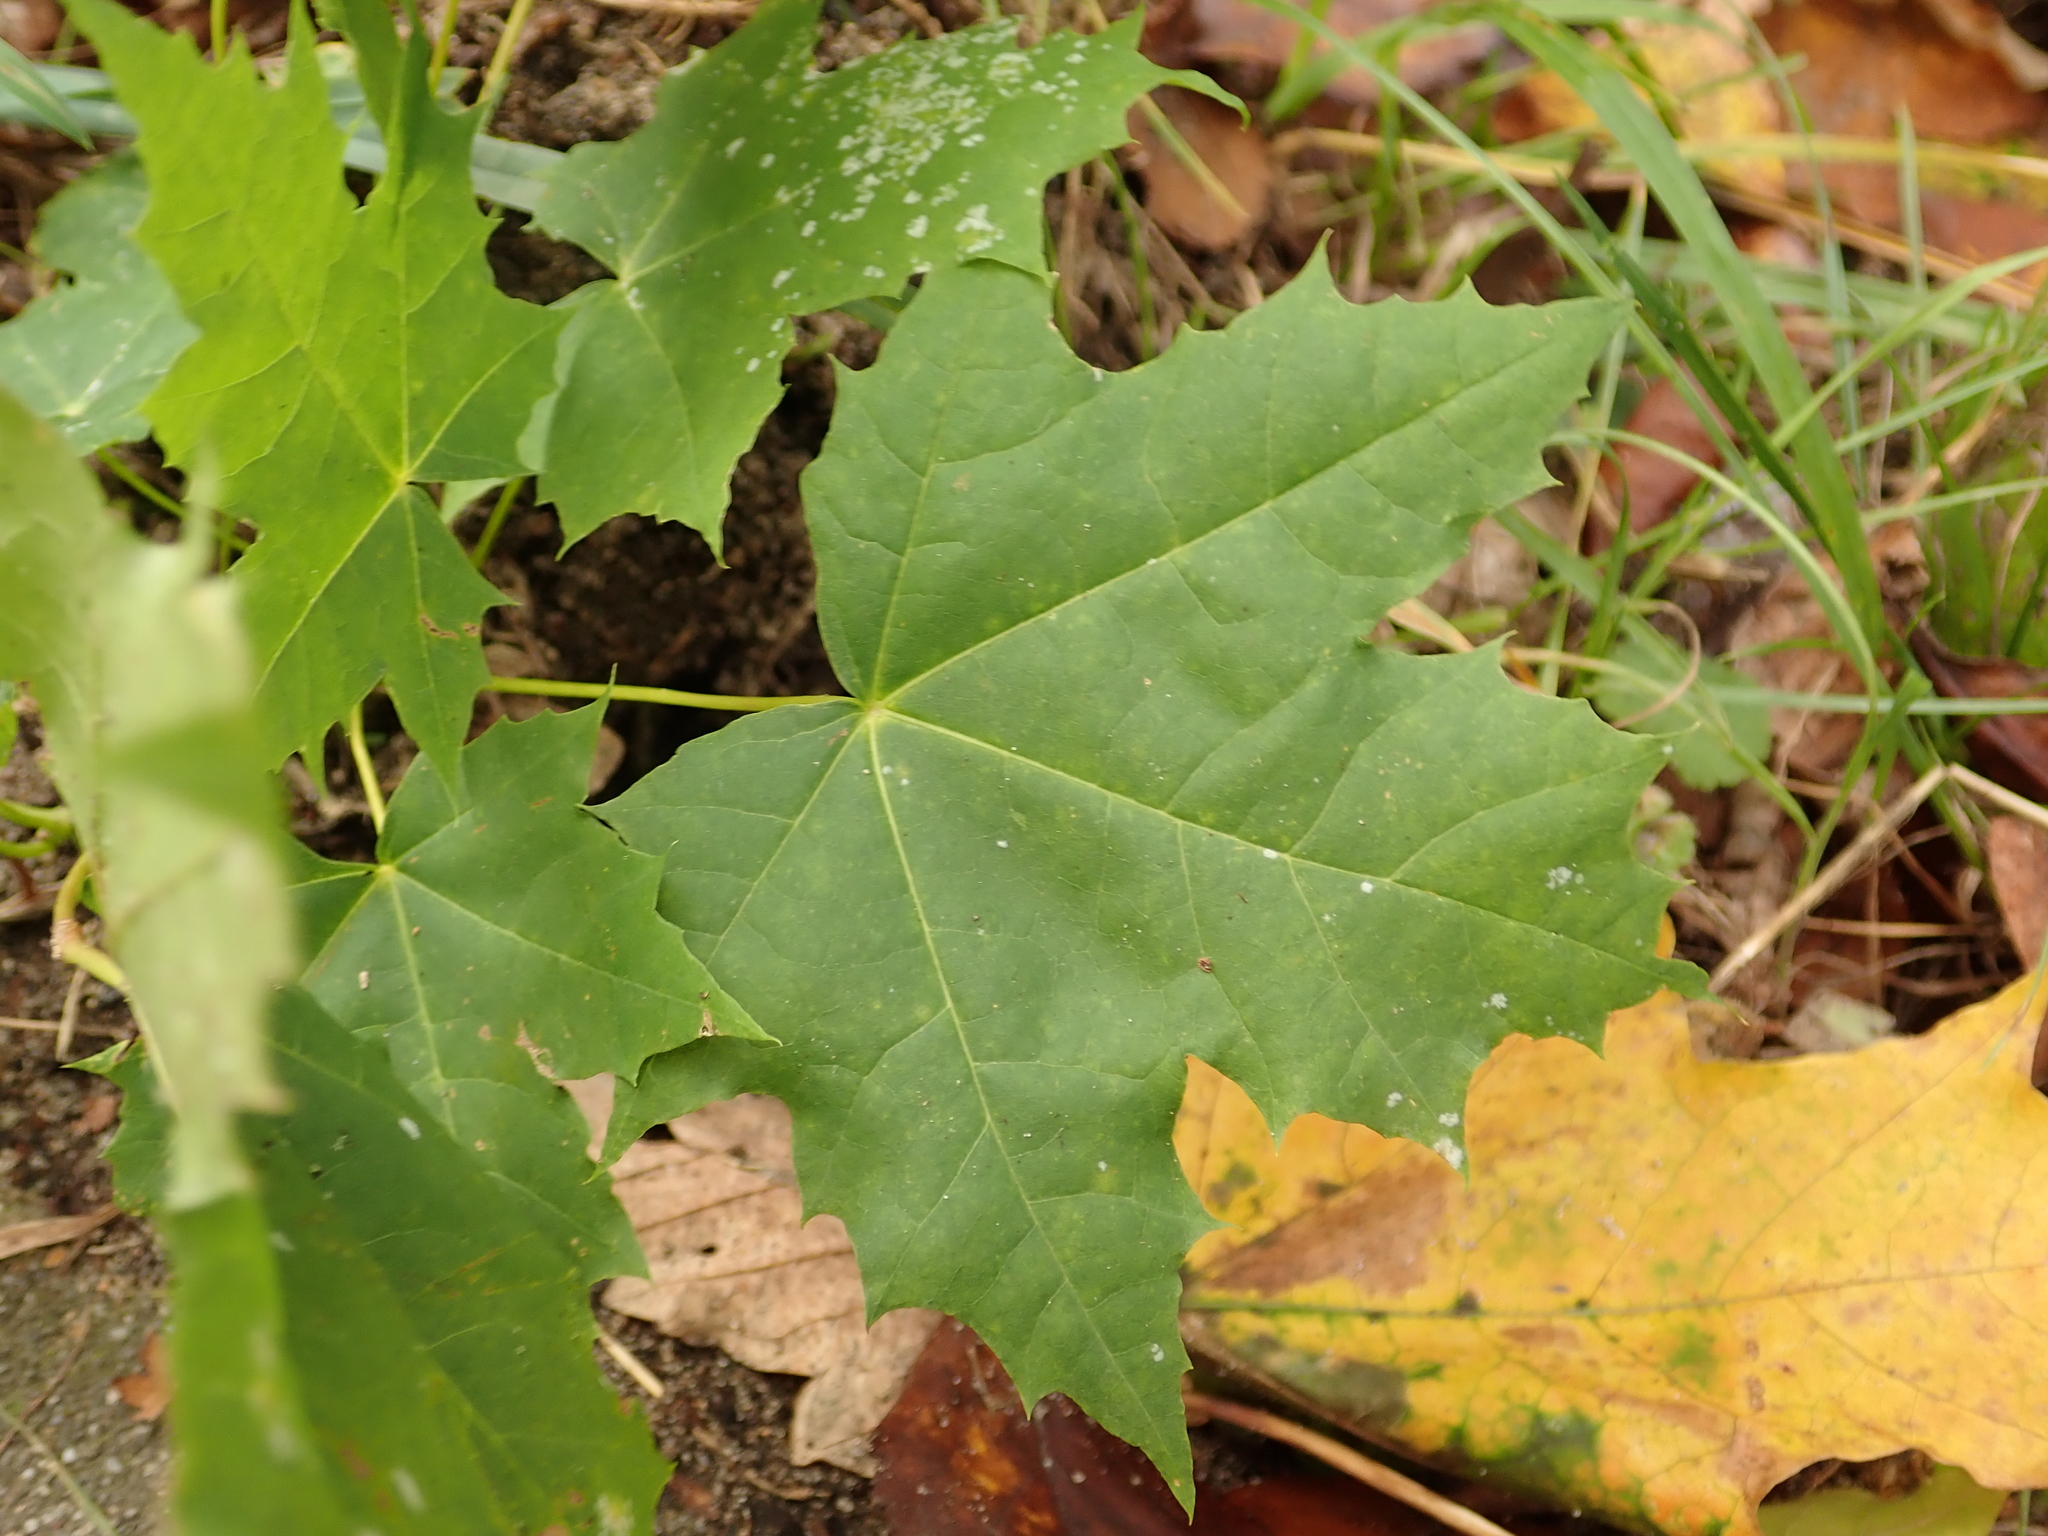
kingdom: Plantae
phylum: Tracheophyta
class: Magnoliopsida
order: Sapindales
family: Sapindaceae
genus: Acer
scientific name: Acer platanoides
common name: Norway maple
